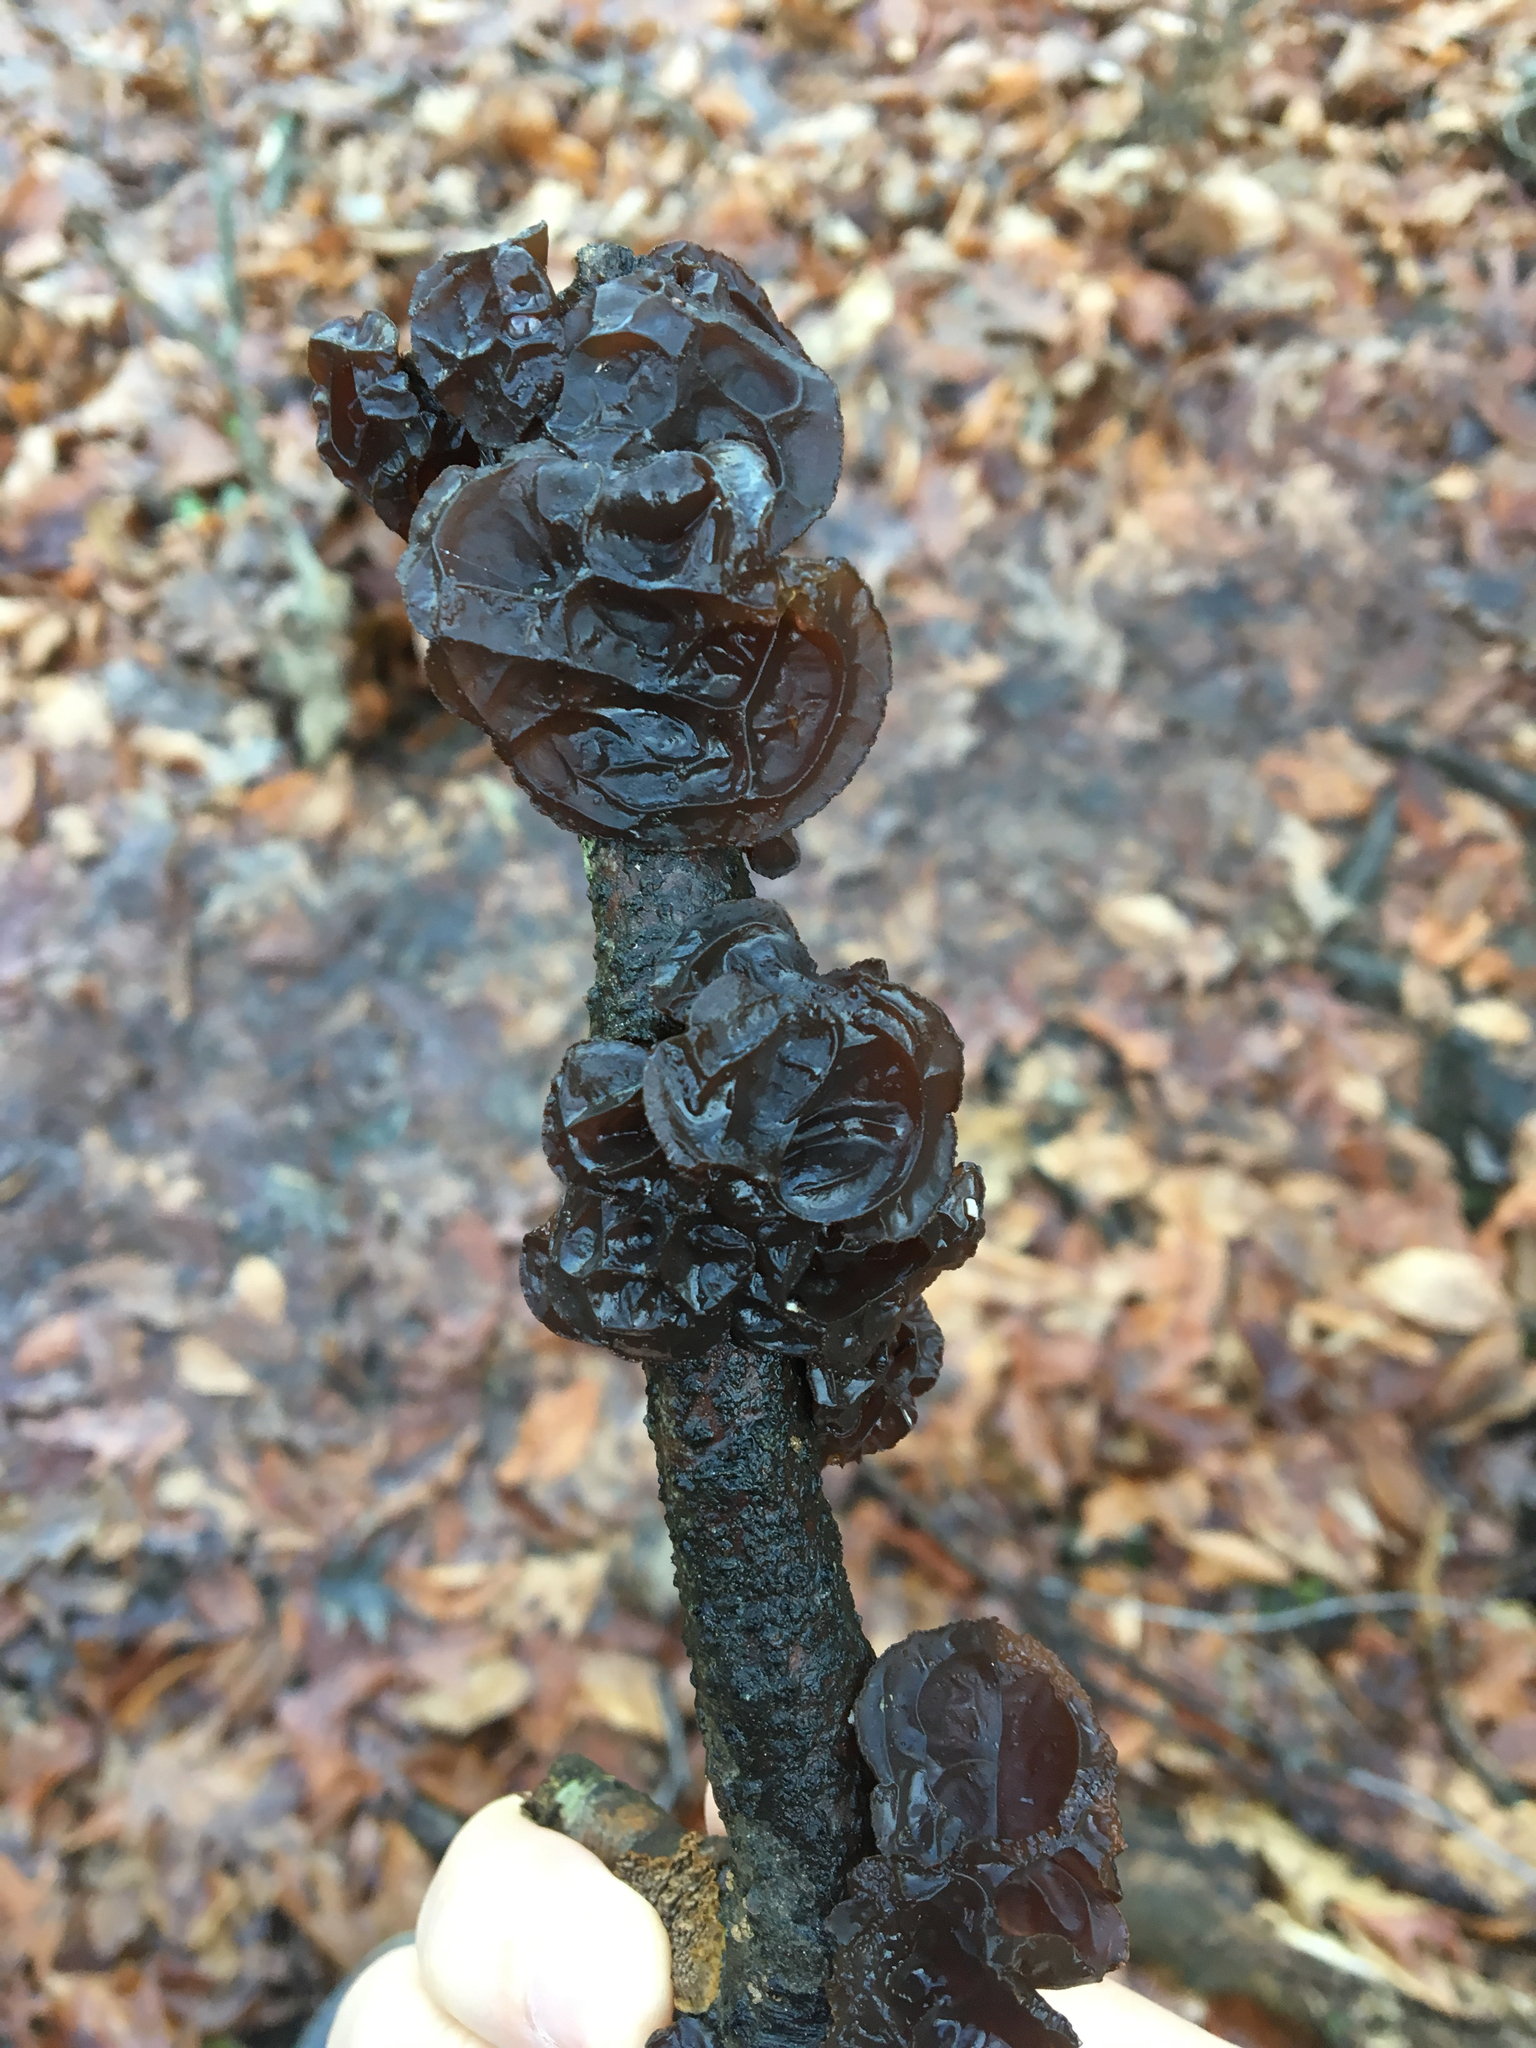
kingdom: Fungi
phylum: Basidiomycota
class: Agaricomycetes
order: Auriculariales
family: Auriculariaceae
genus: Exidia
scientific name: Exidia
